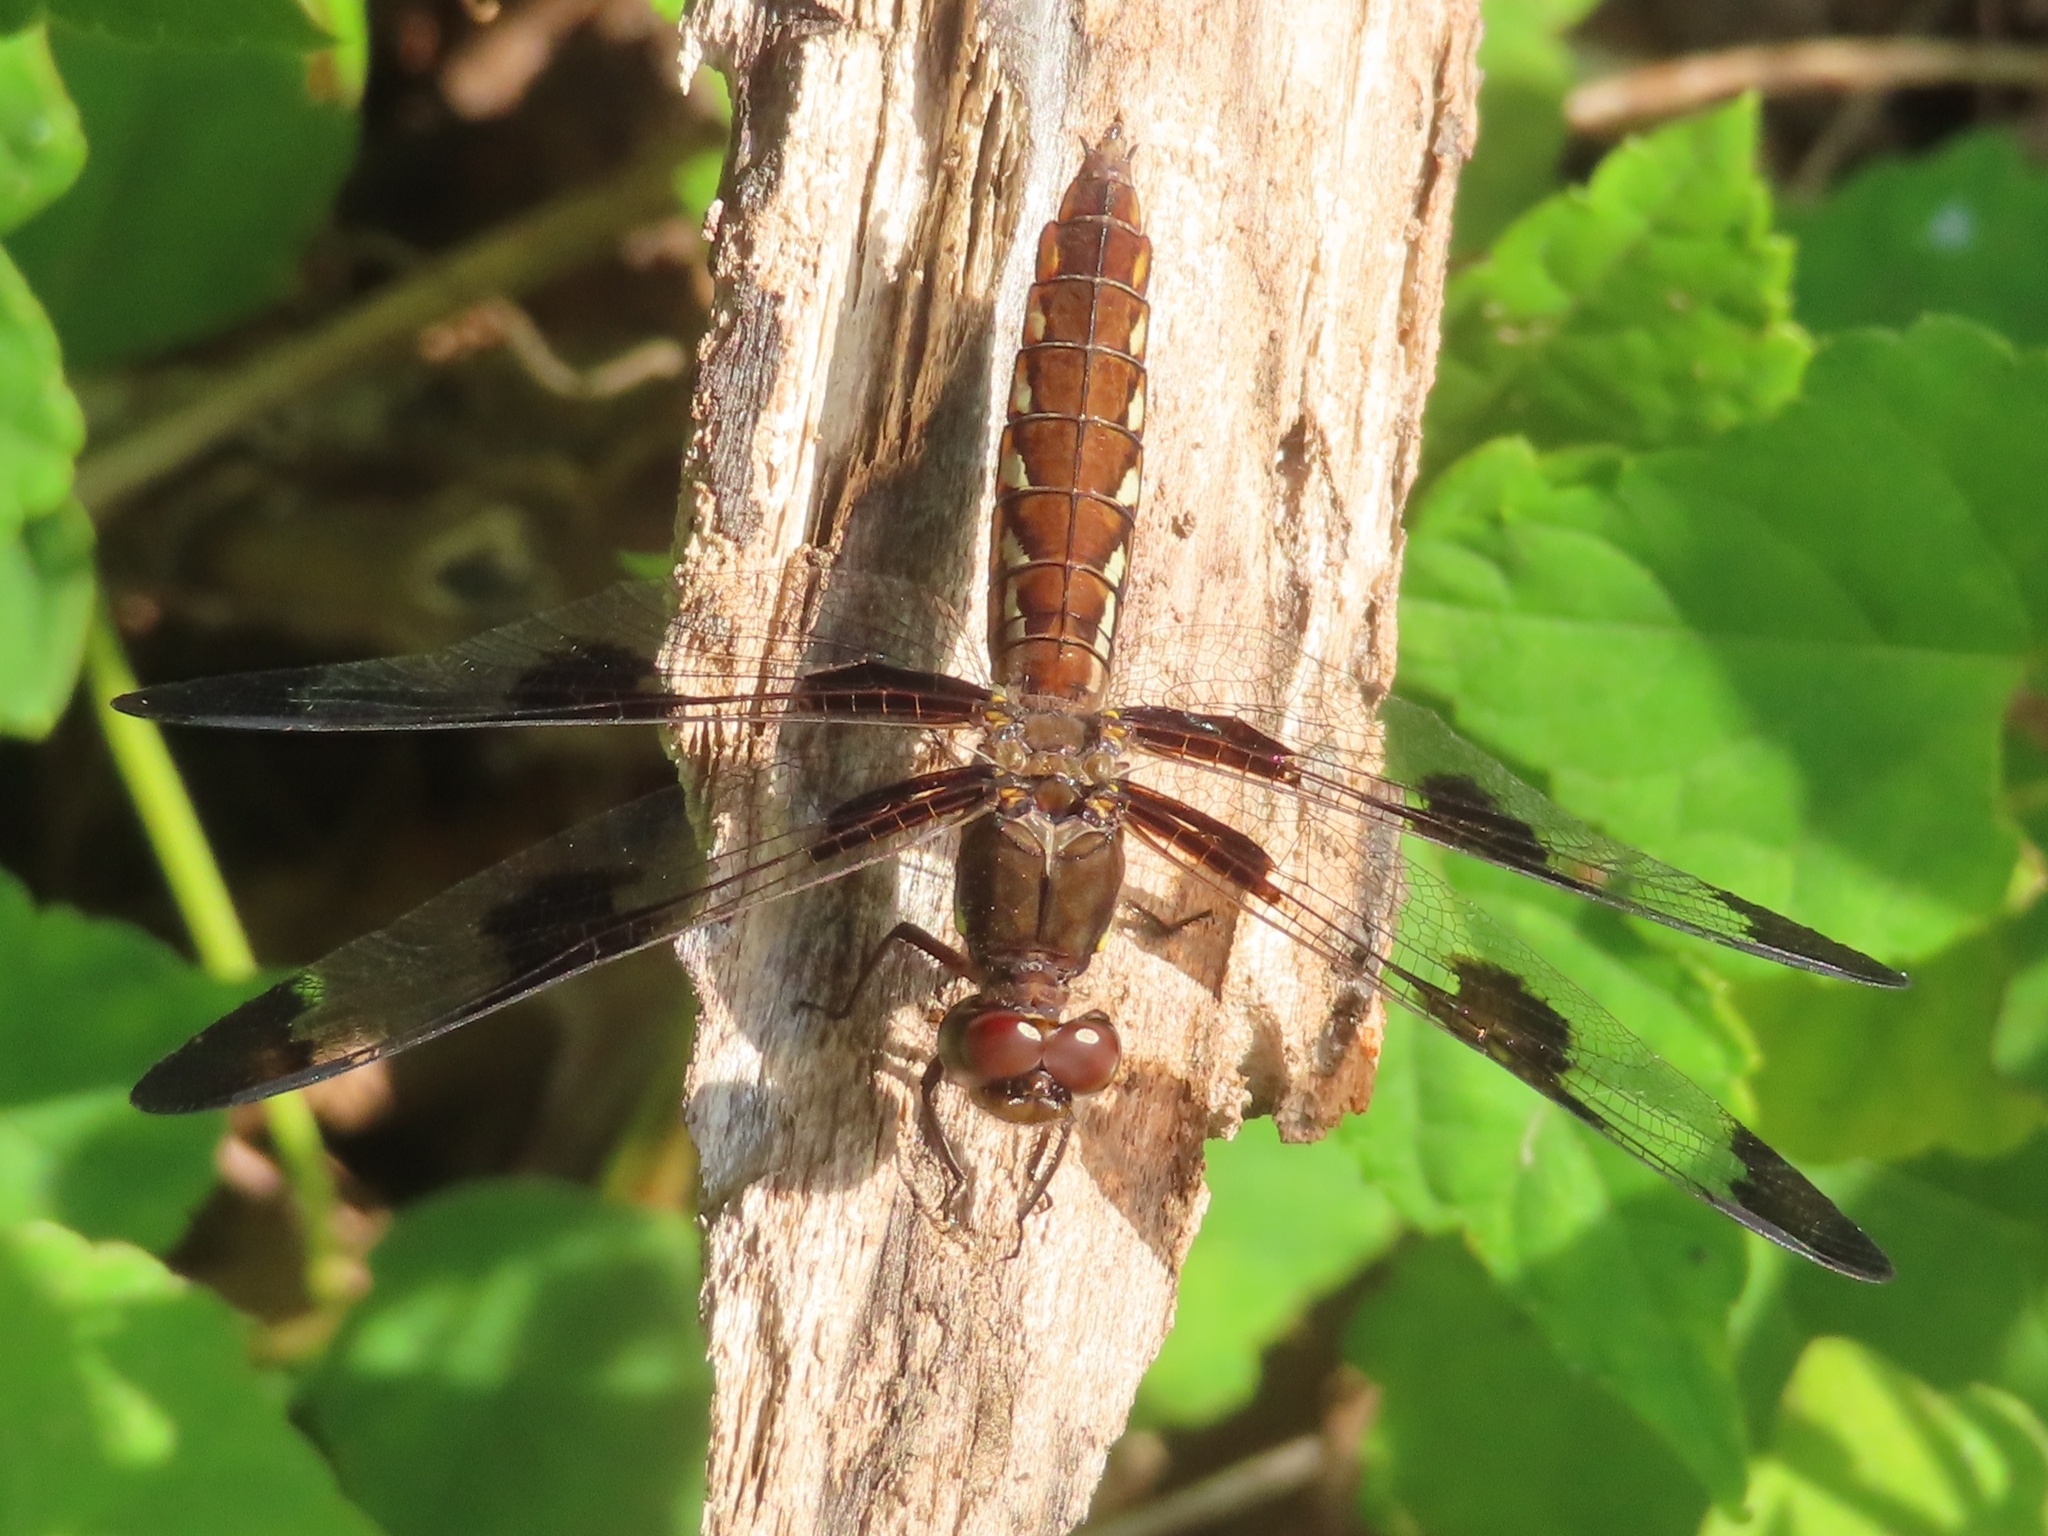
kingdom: Animalia
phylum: Arthropoda
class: Insecta
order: Odonata
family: Libellulidae
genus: Plathemis
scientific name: Plathemis lydia
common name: Common whitetail
